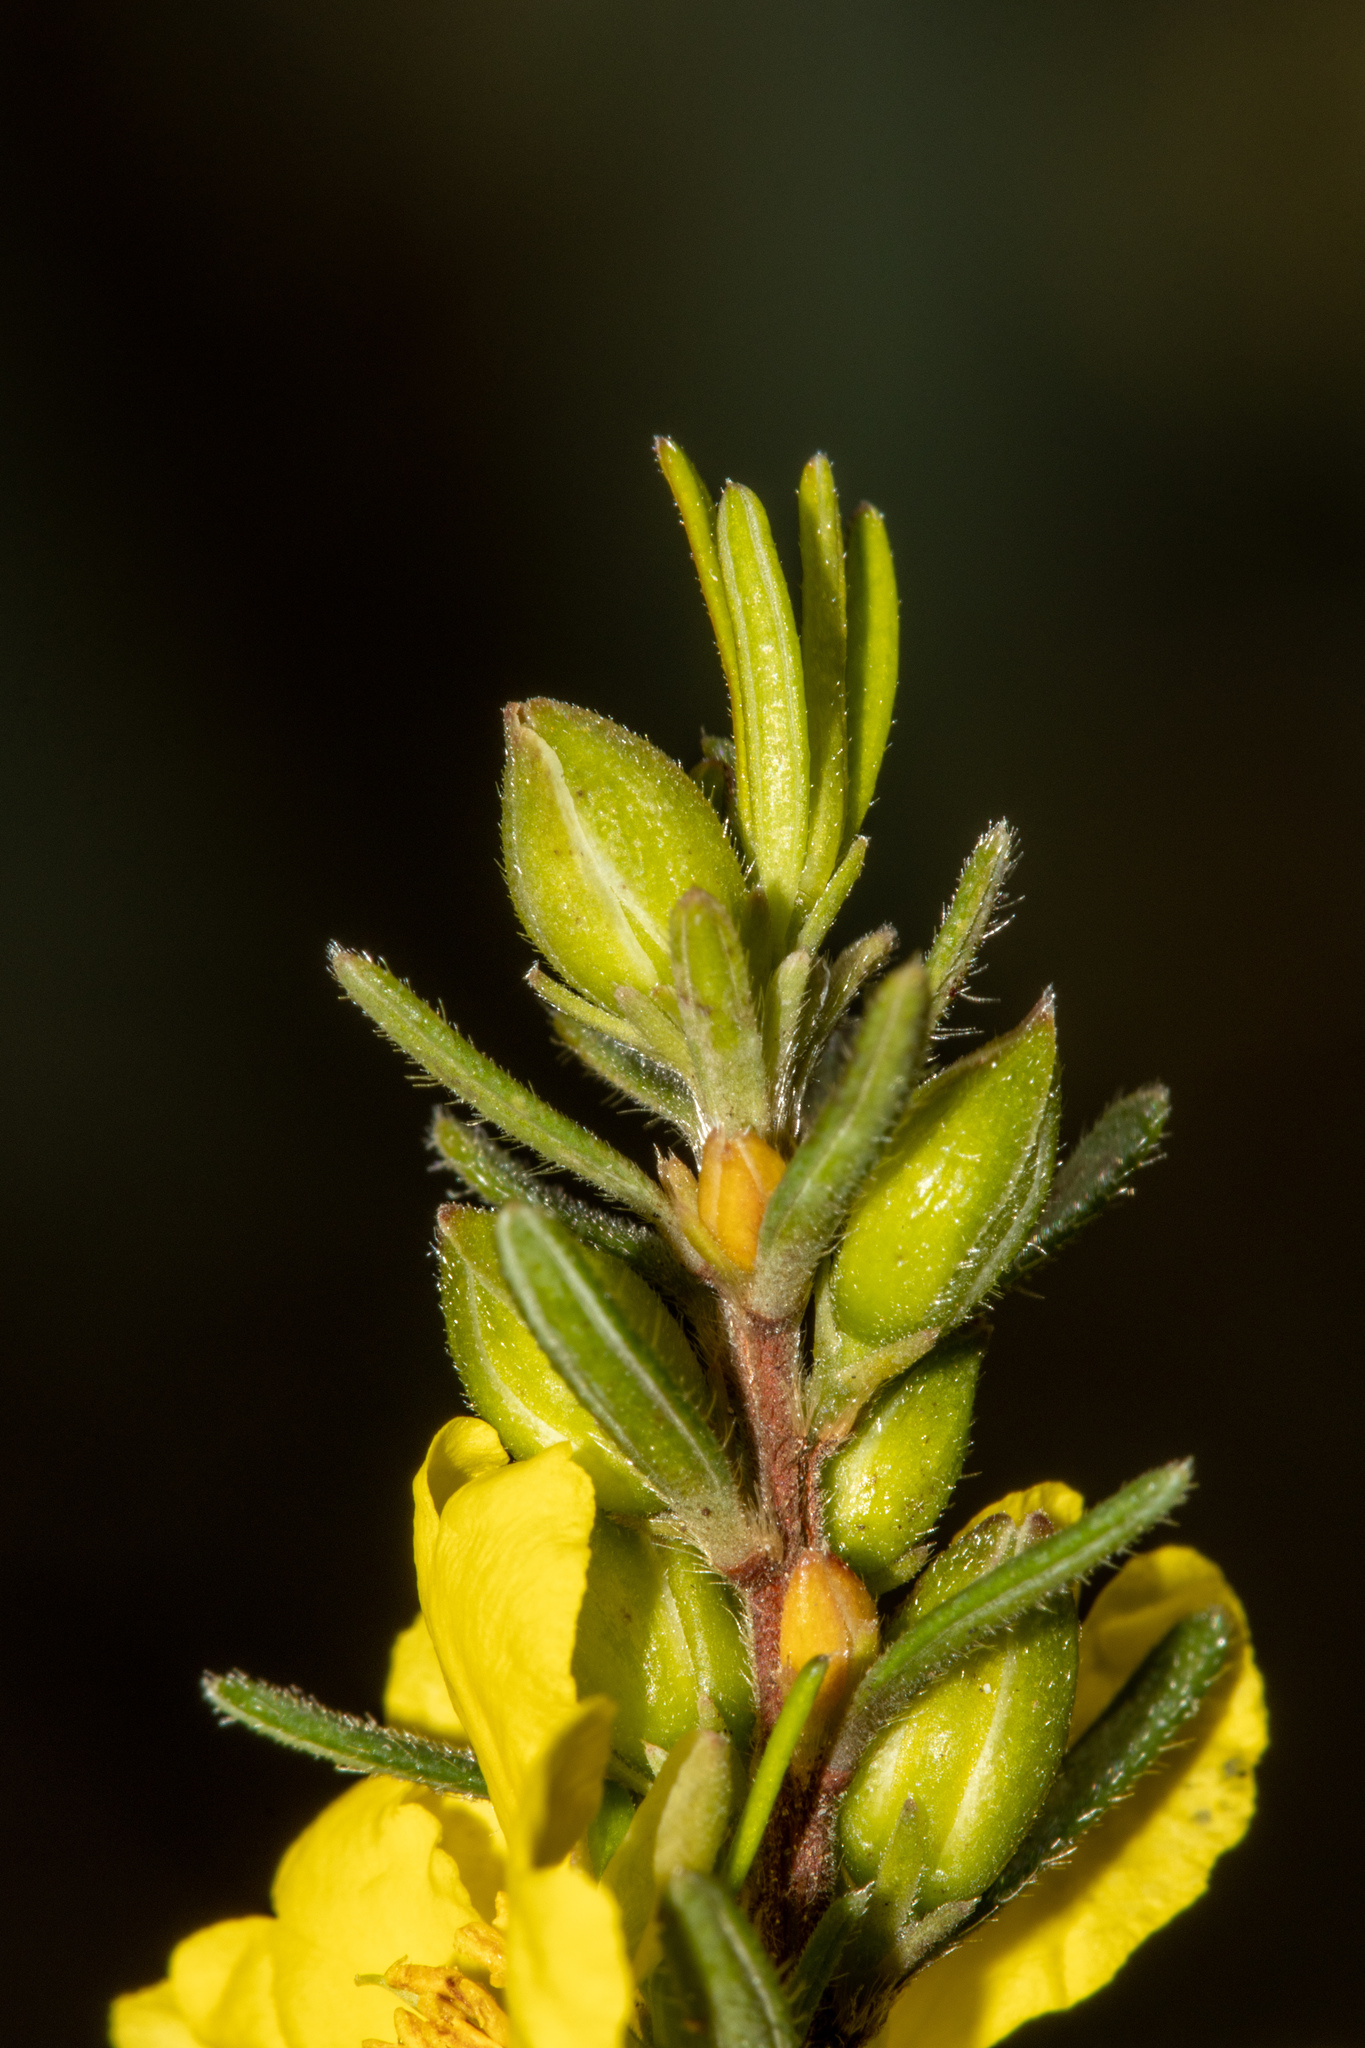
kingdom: Plantae
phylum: Tracheophyta
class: Magnoliopsida
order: Dilleniales
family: Dilleniaceae
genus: Hibbertia
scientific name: Hibbertia riparia
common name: Erect guinea-flower
